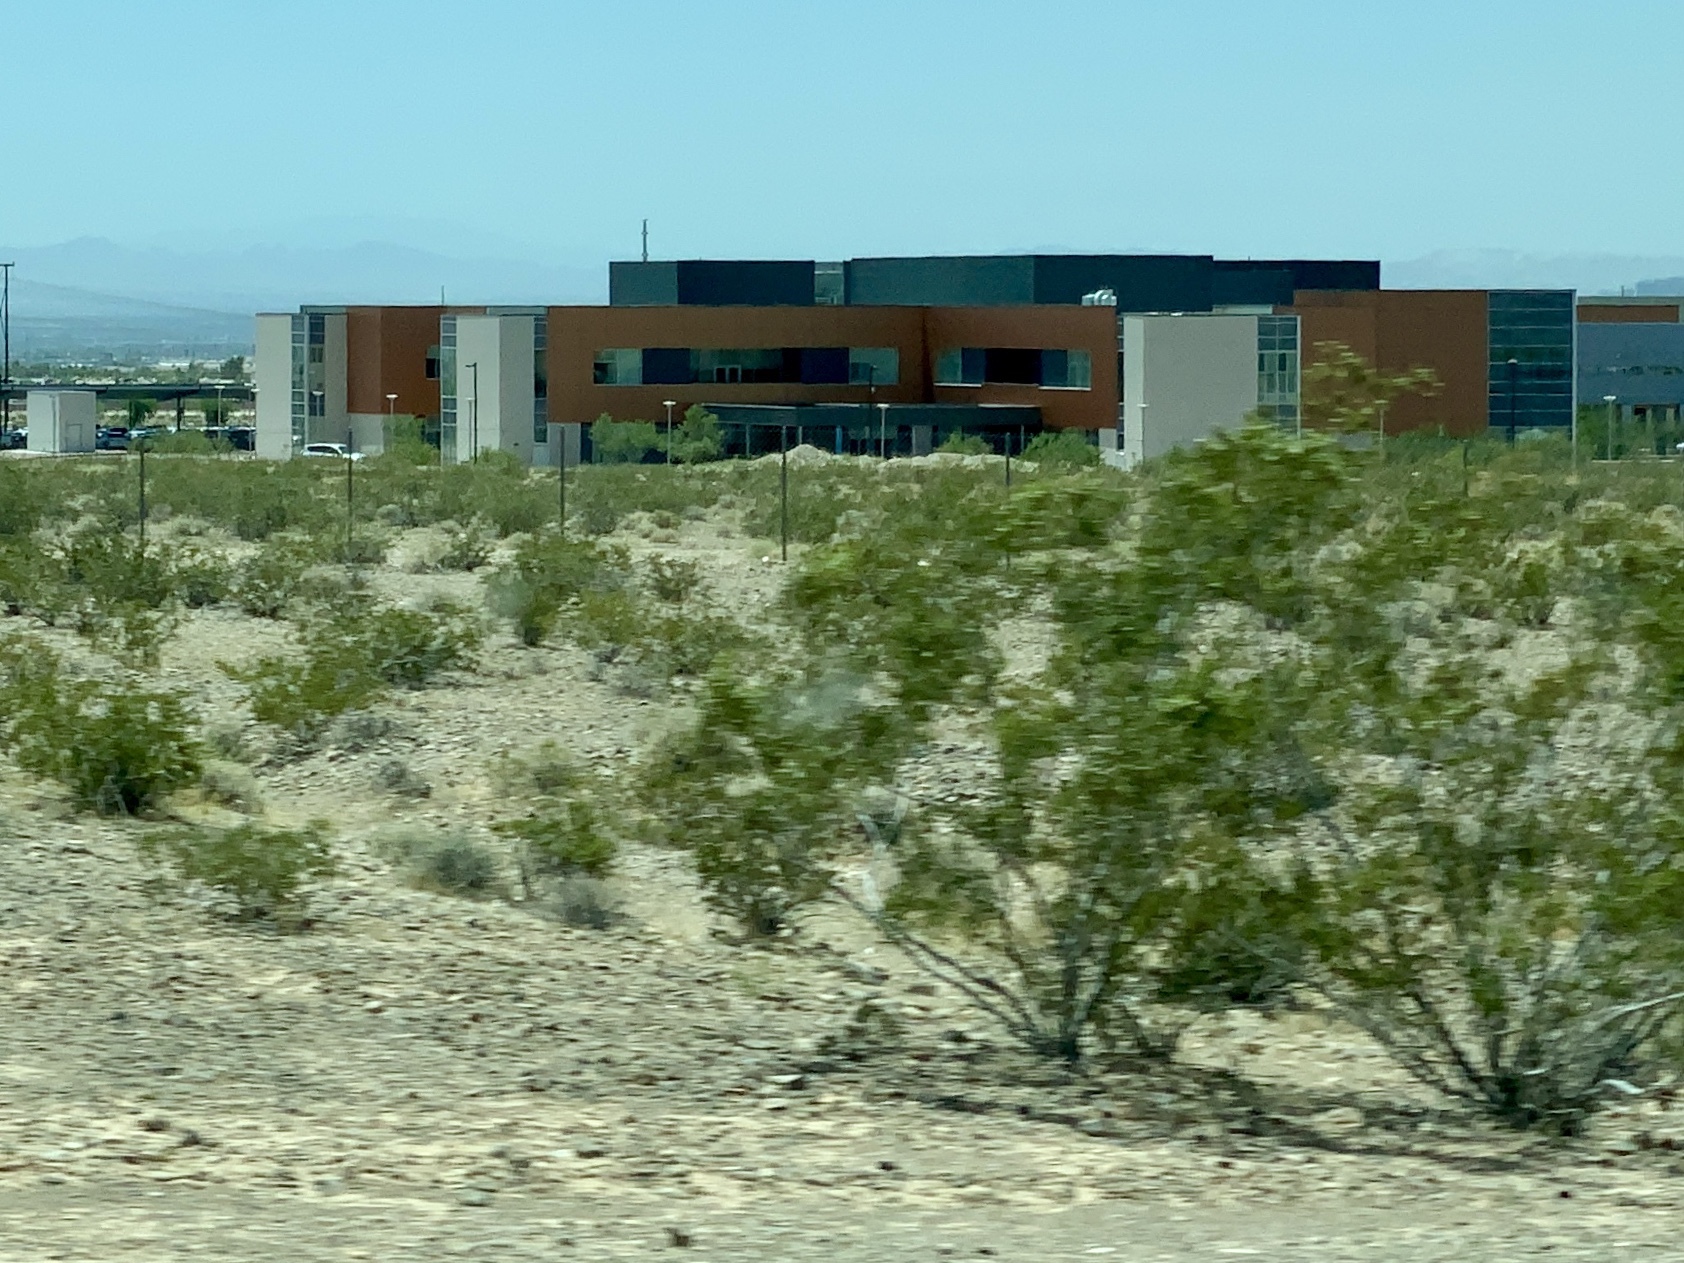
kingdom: Plantae
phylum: Tracheophyta
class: Magnoliopsida
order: Zygophyllales
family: Zygophyllaceae
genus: Larrea
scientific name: Larrea tridentata
